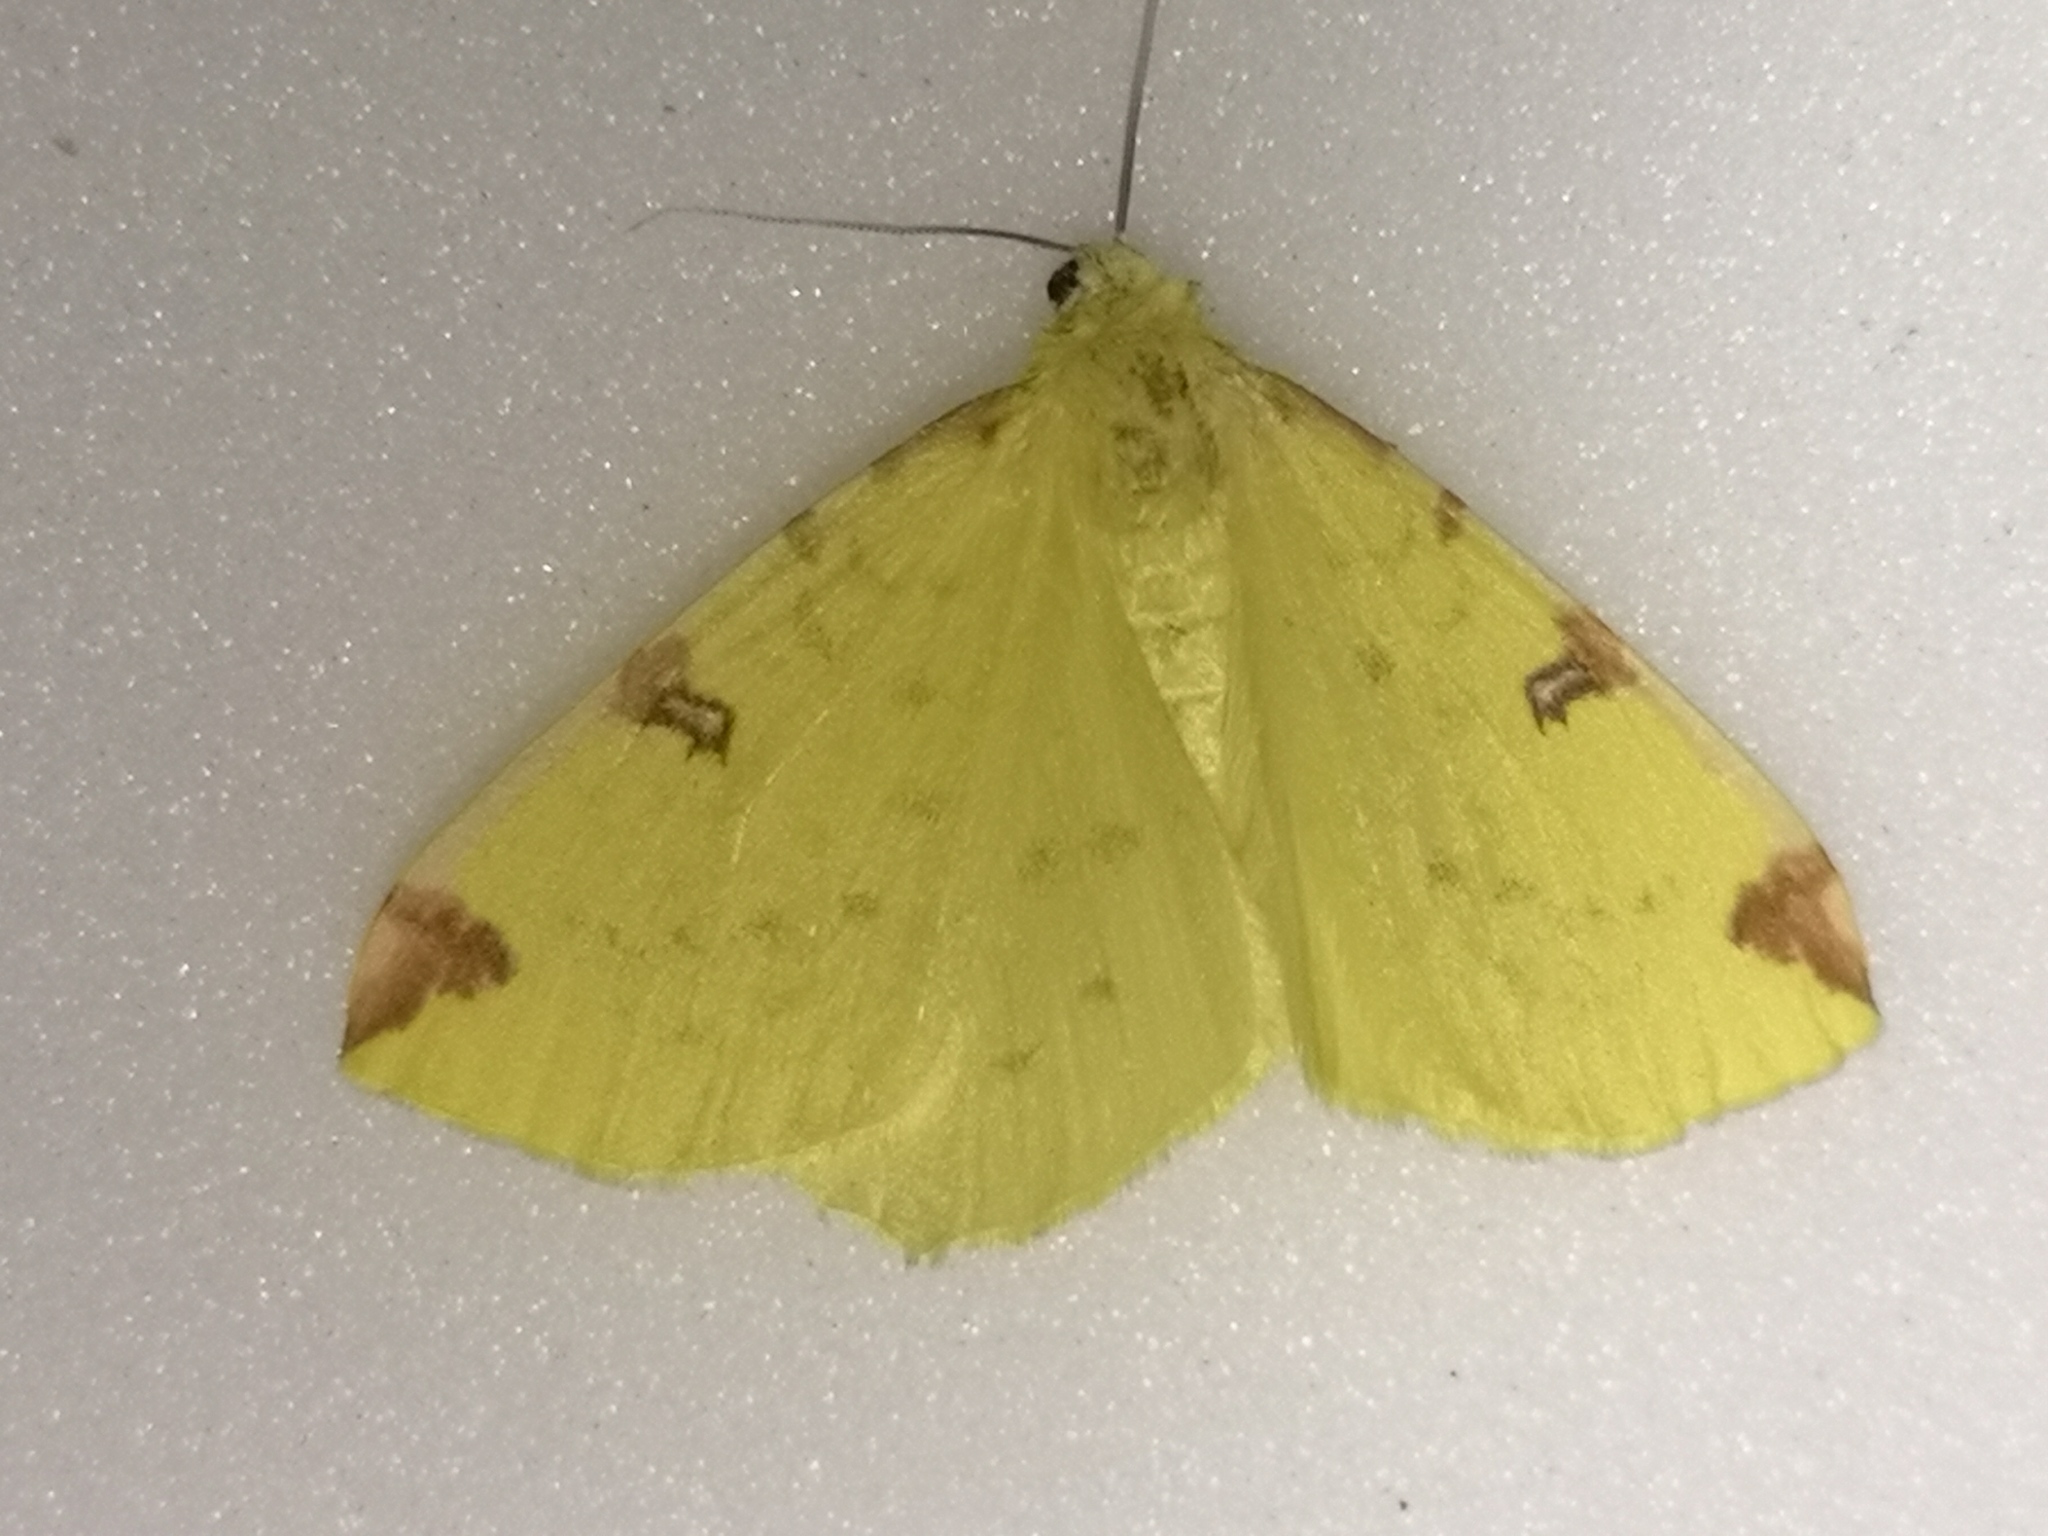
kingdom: Animalia
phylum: Arthropoda
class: Insecta
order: Lepidoptera
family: Geometridae
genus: Opisthograptis
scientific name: Opisthograptis luteolata
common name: Brimstone moth
